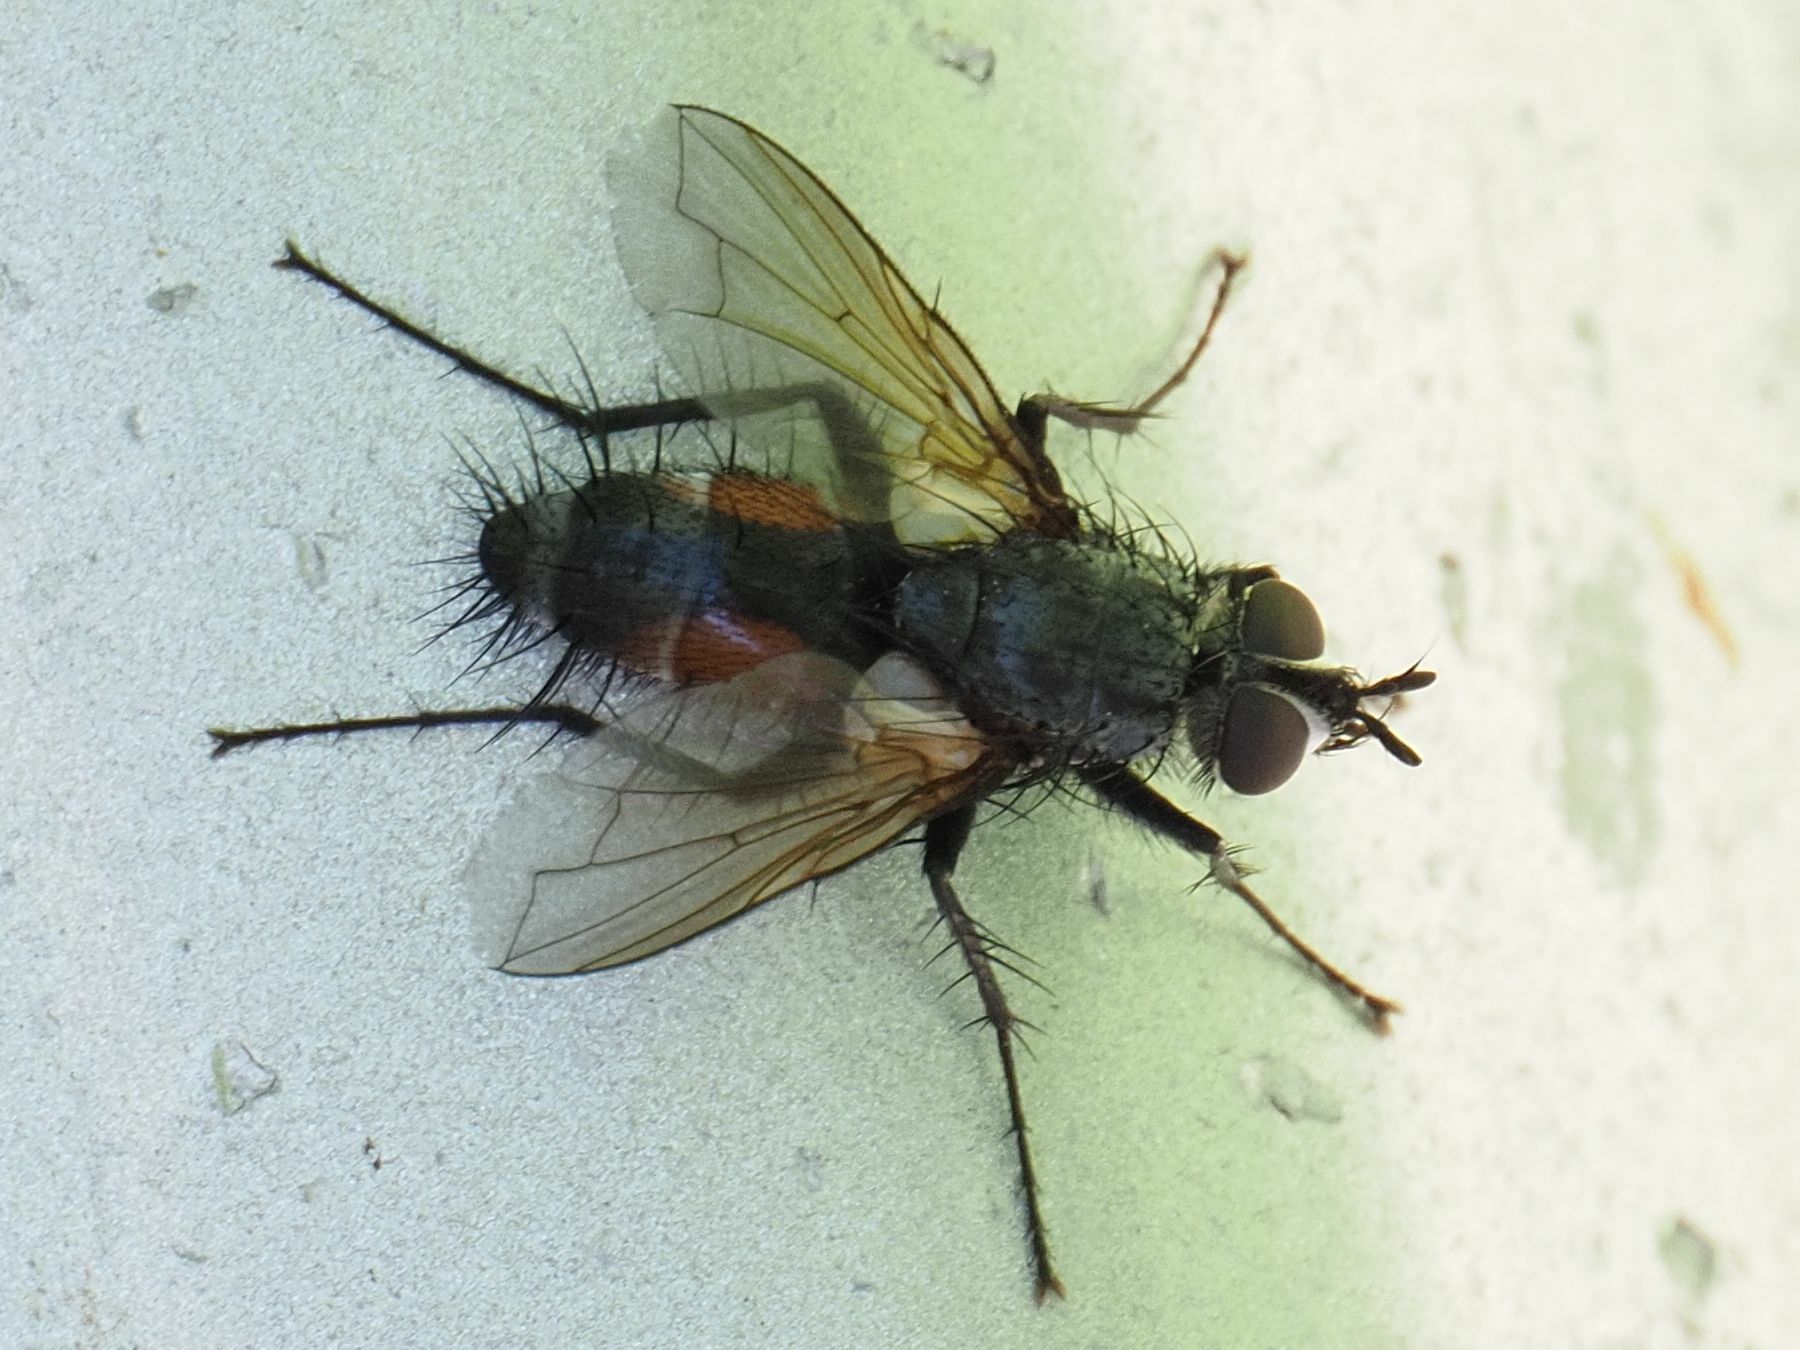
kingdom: Animalia
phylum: Arthropoda
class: Insecta
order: Diptera
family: Tachinidae
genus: Eriothrix
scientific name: Eriothrix rufomaculatus
